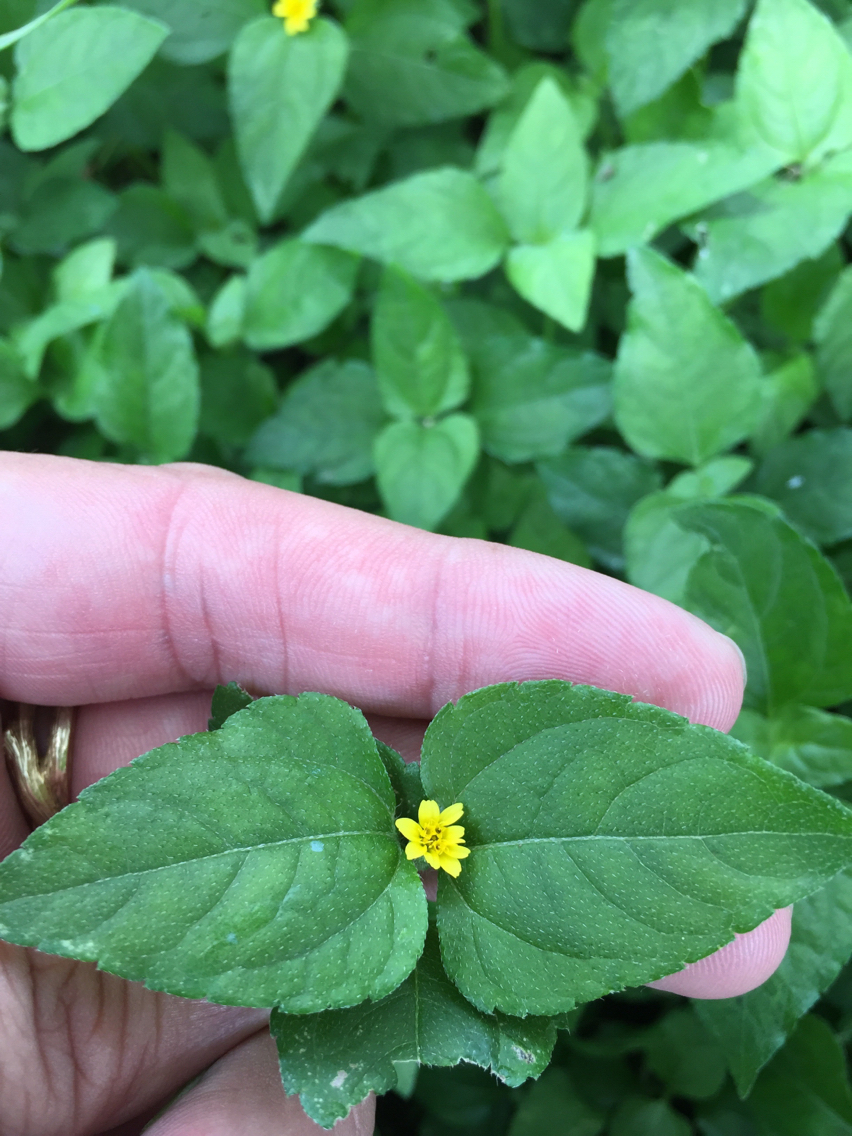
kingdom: Plantae
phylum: Tracheophyta
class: Magnoliopsida
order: Asterales
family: Asteraceae
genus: Calyptocarpus
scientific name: Calyptocarpus vialis
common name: Straggler daisy
